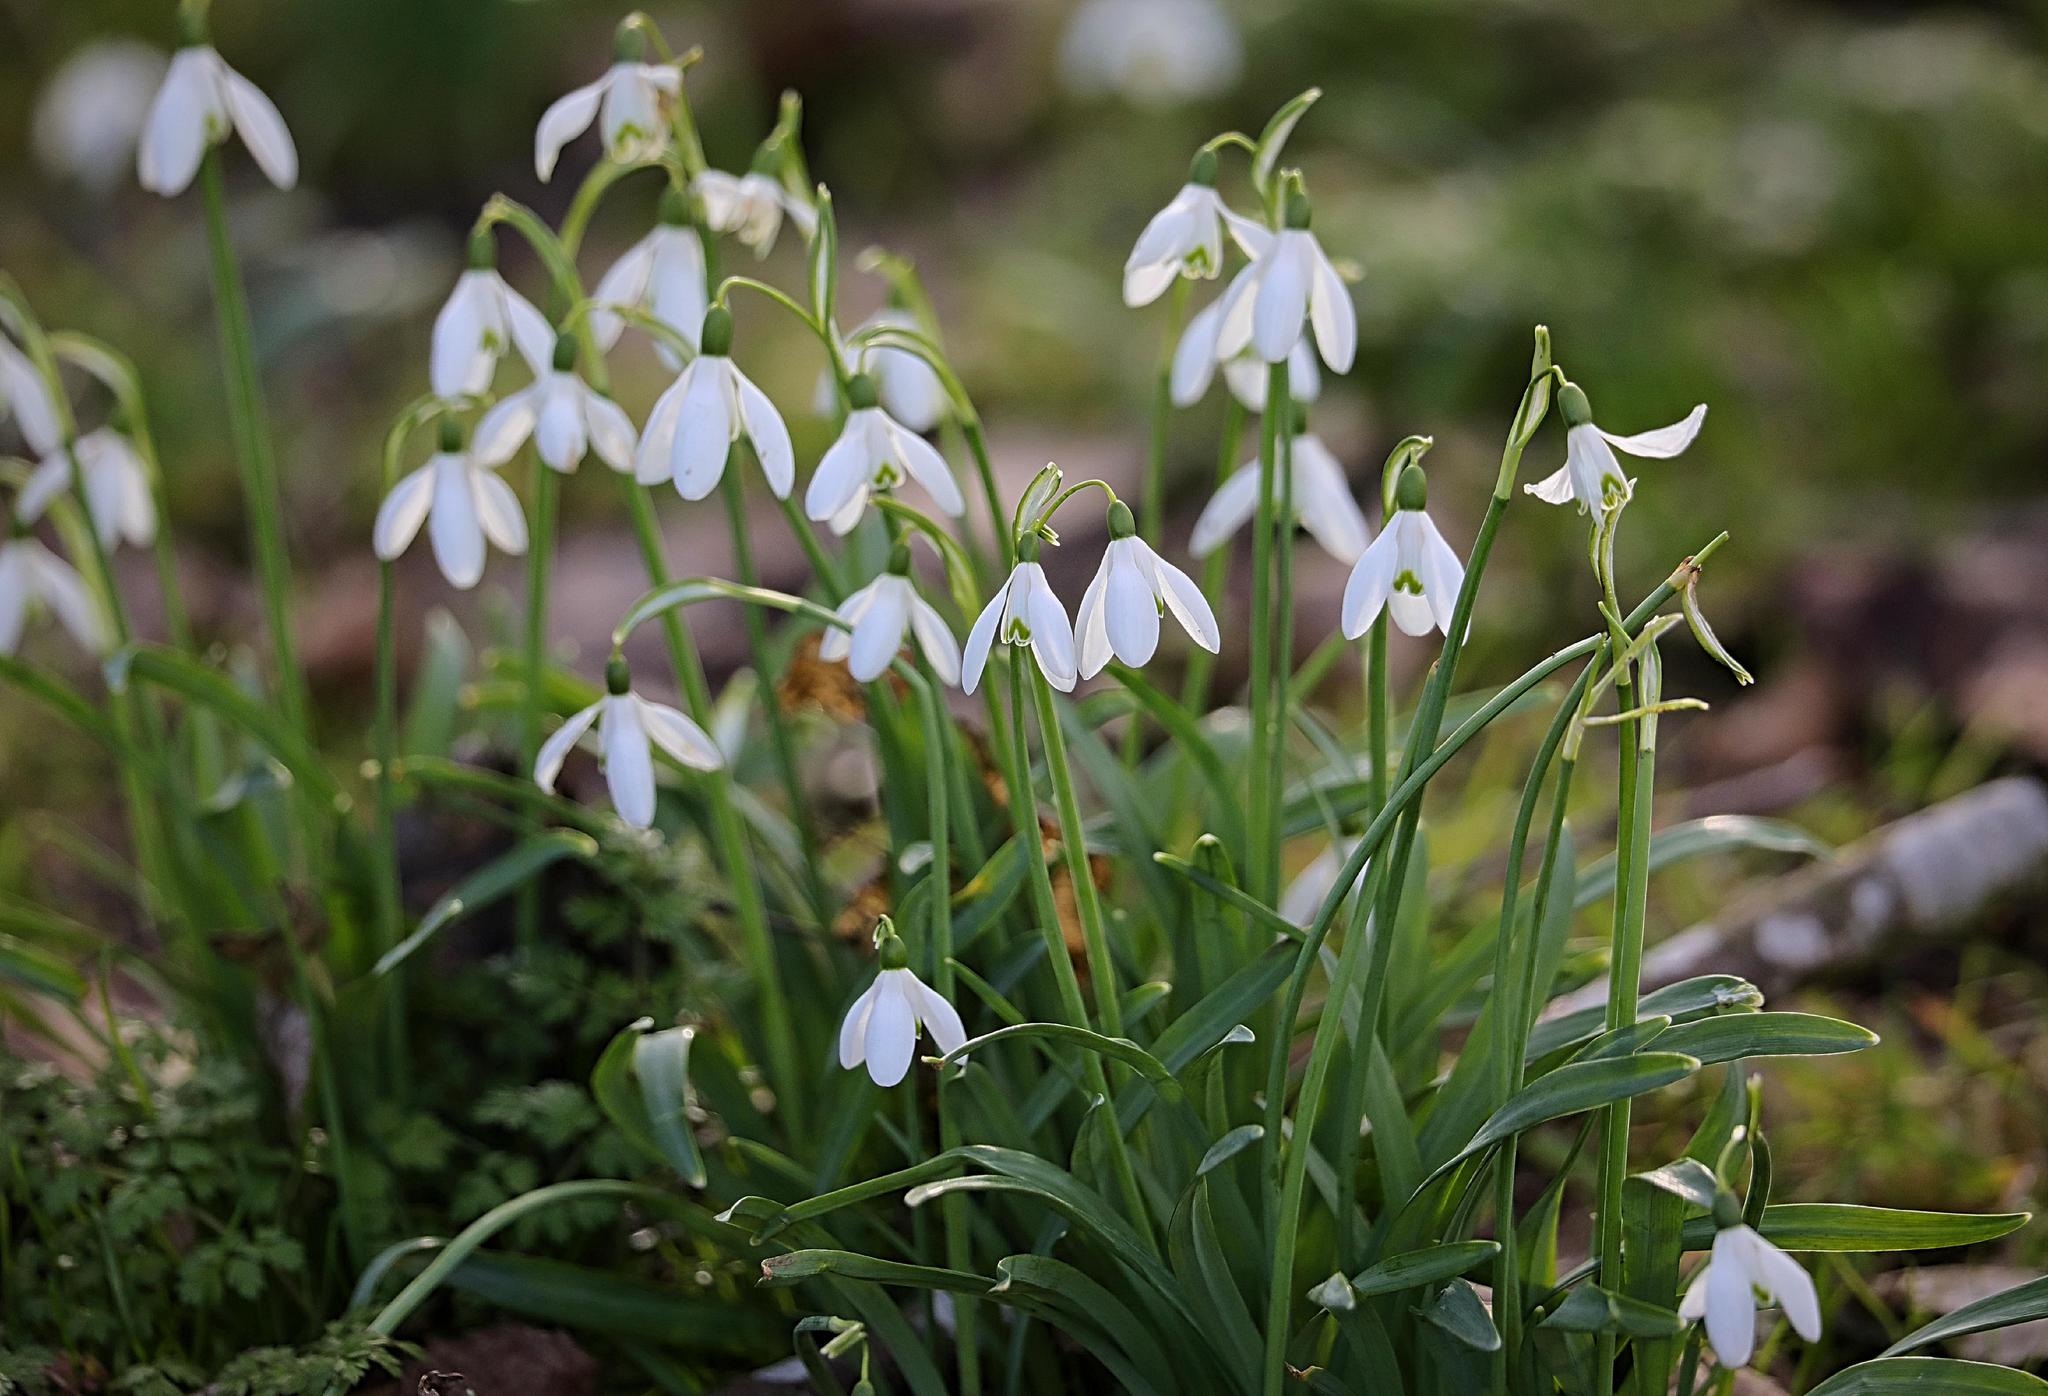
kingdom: Plantae
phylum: Tracheophyta
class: Liliopsida
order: Asparagales
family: Amaryllidaceae
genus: Galanthus
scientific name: Galanthus nivalis
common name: Snowdrop
